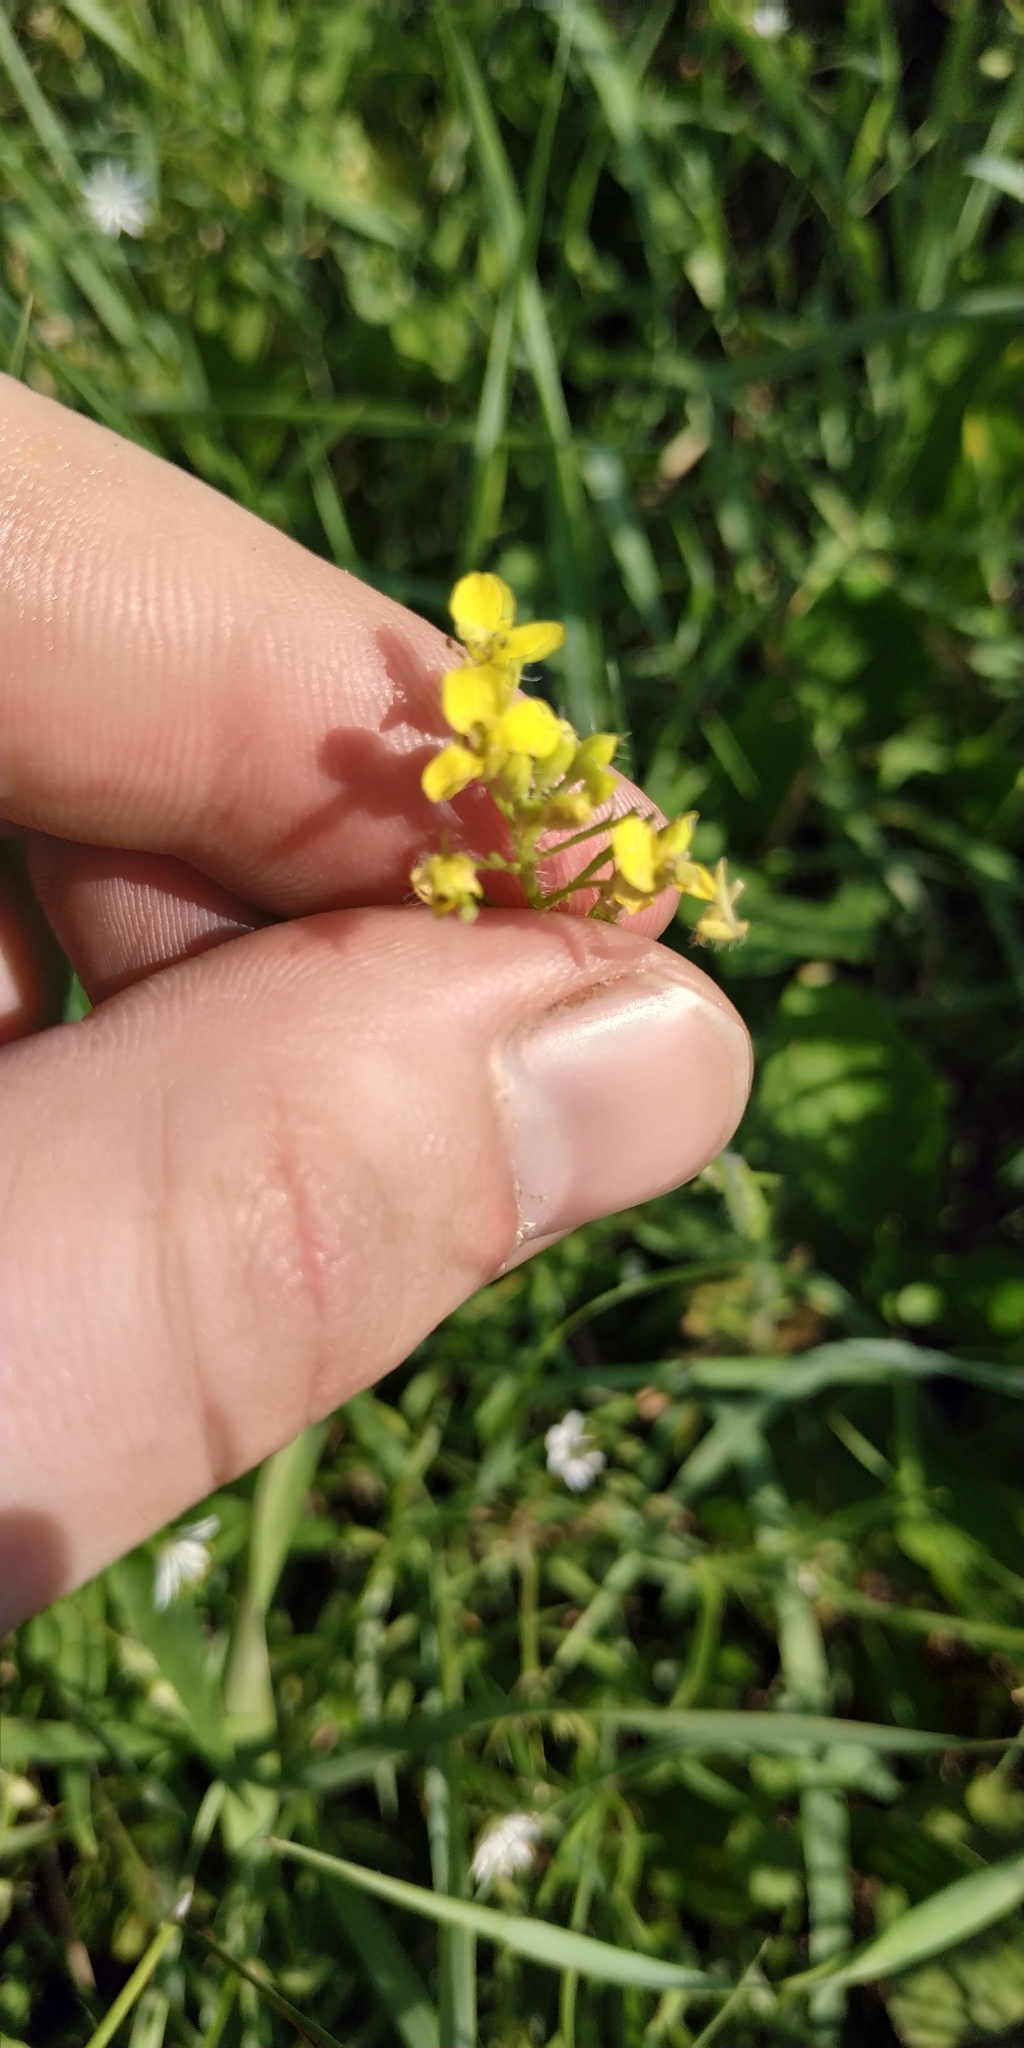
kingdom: Plantae
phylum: Tracheophyta
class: Magnoliopsida
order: Brassicales
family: Brassicaceae
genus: Sisymbrium
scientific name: Sisymbrium loeselii
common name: False london-rocket
